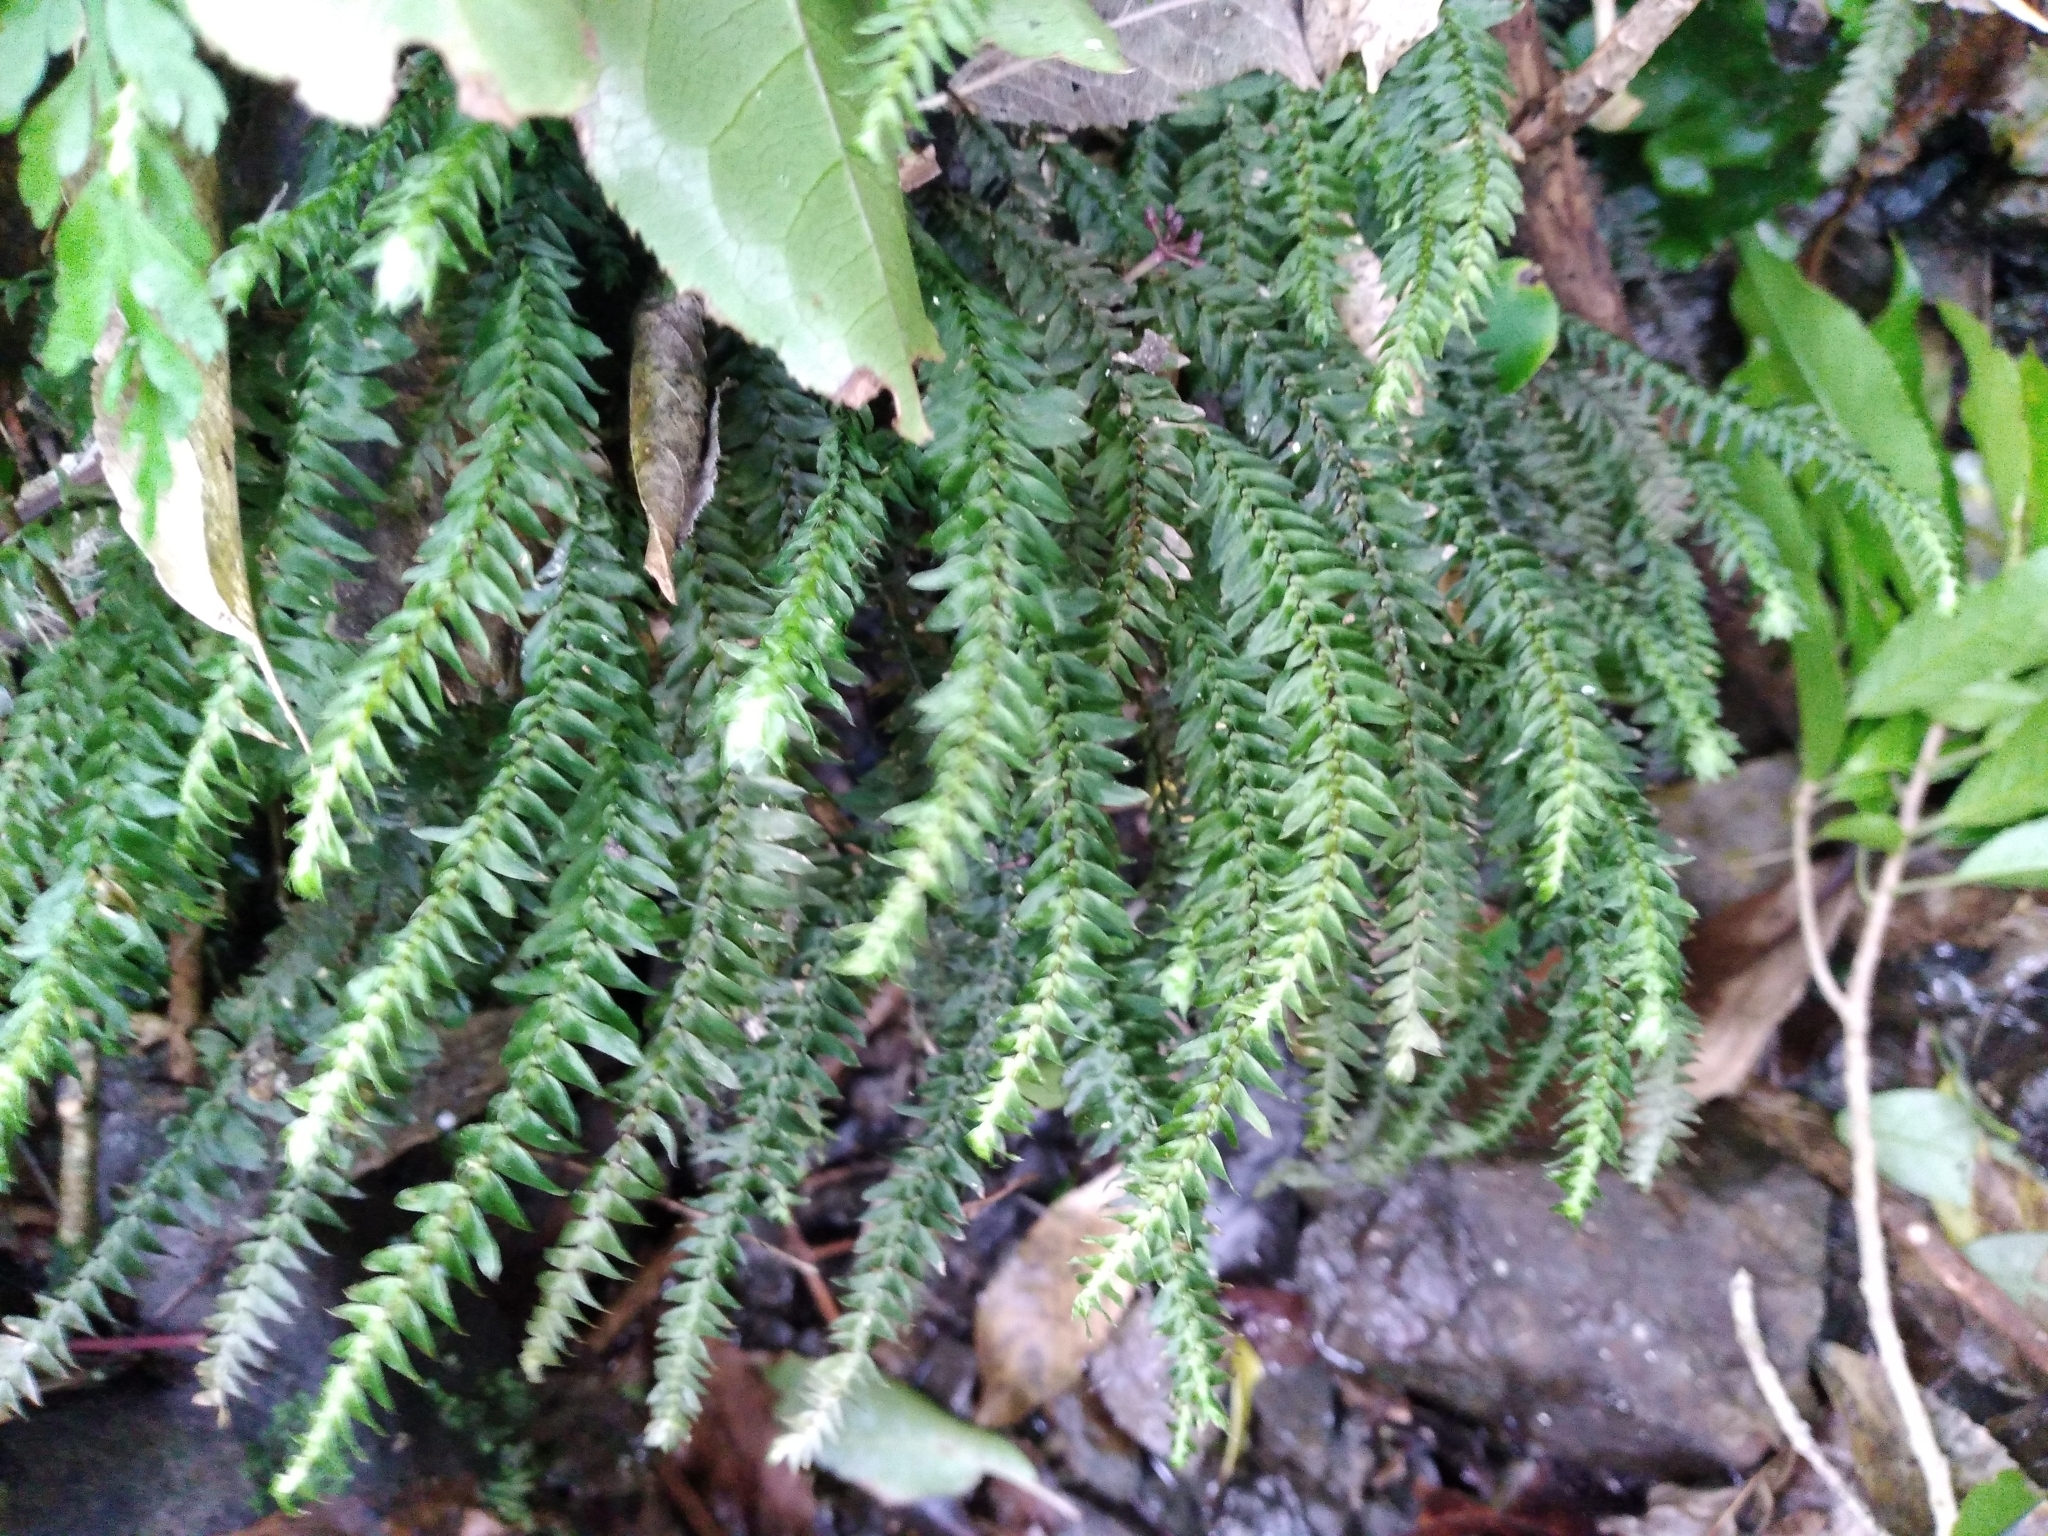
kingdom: Plantae
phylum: Bryophyta
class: Bryopsida
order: Hypopterygiales
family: Hypopterygiaceae
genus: Cyathophorum
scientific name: Cyathophorum bulbosum
